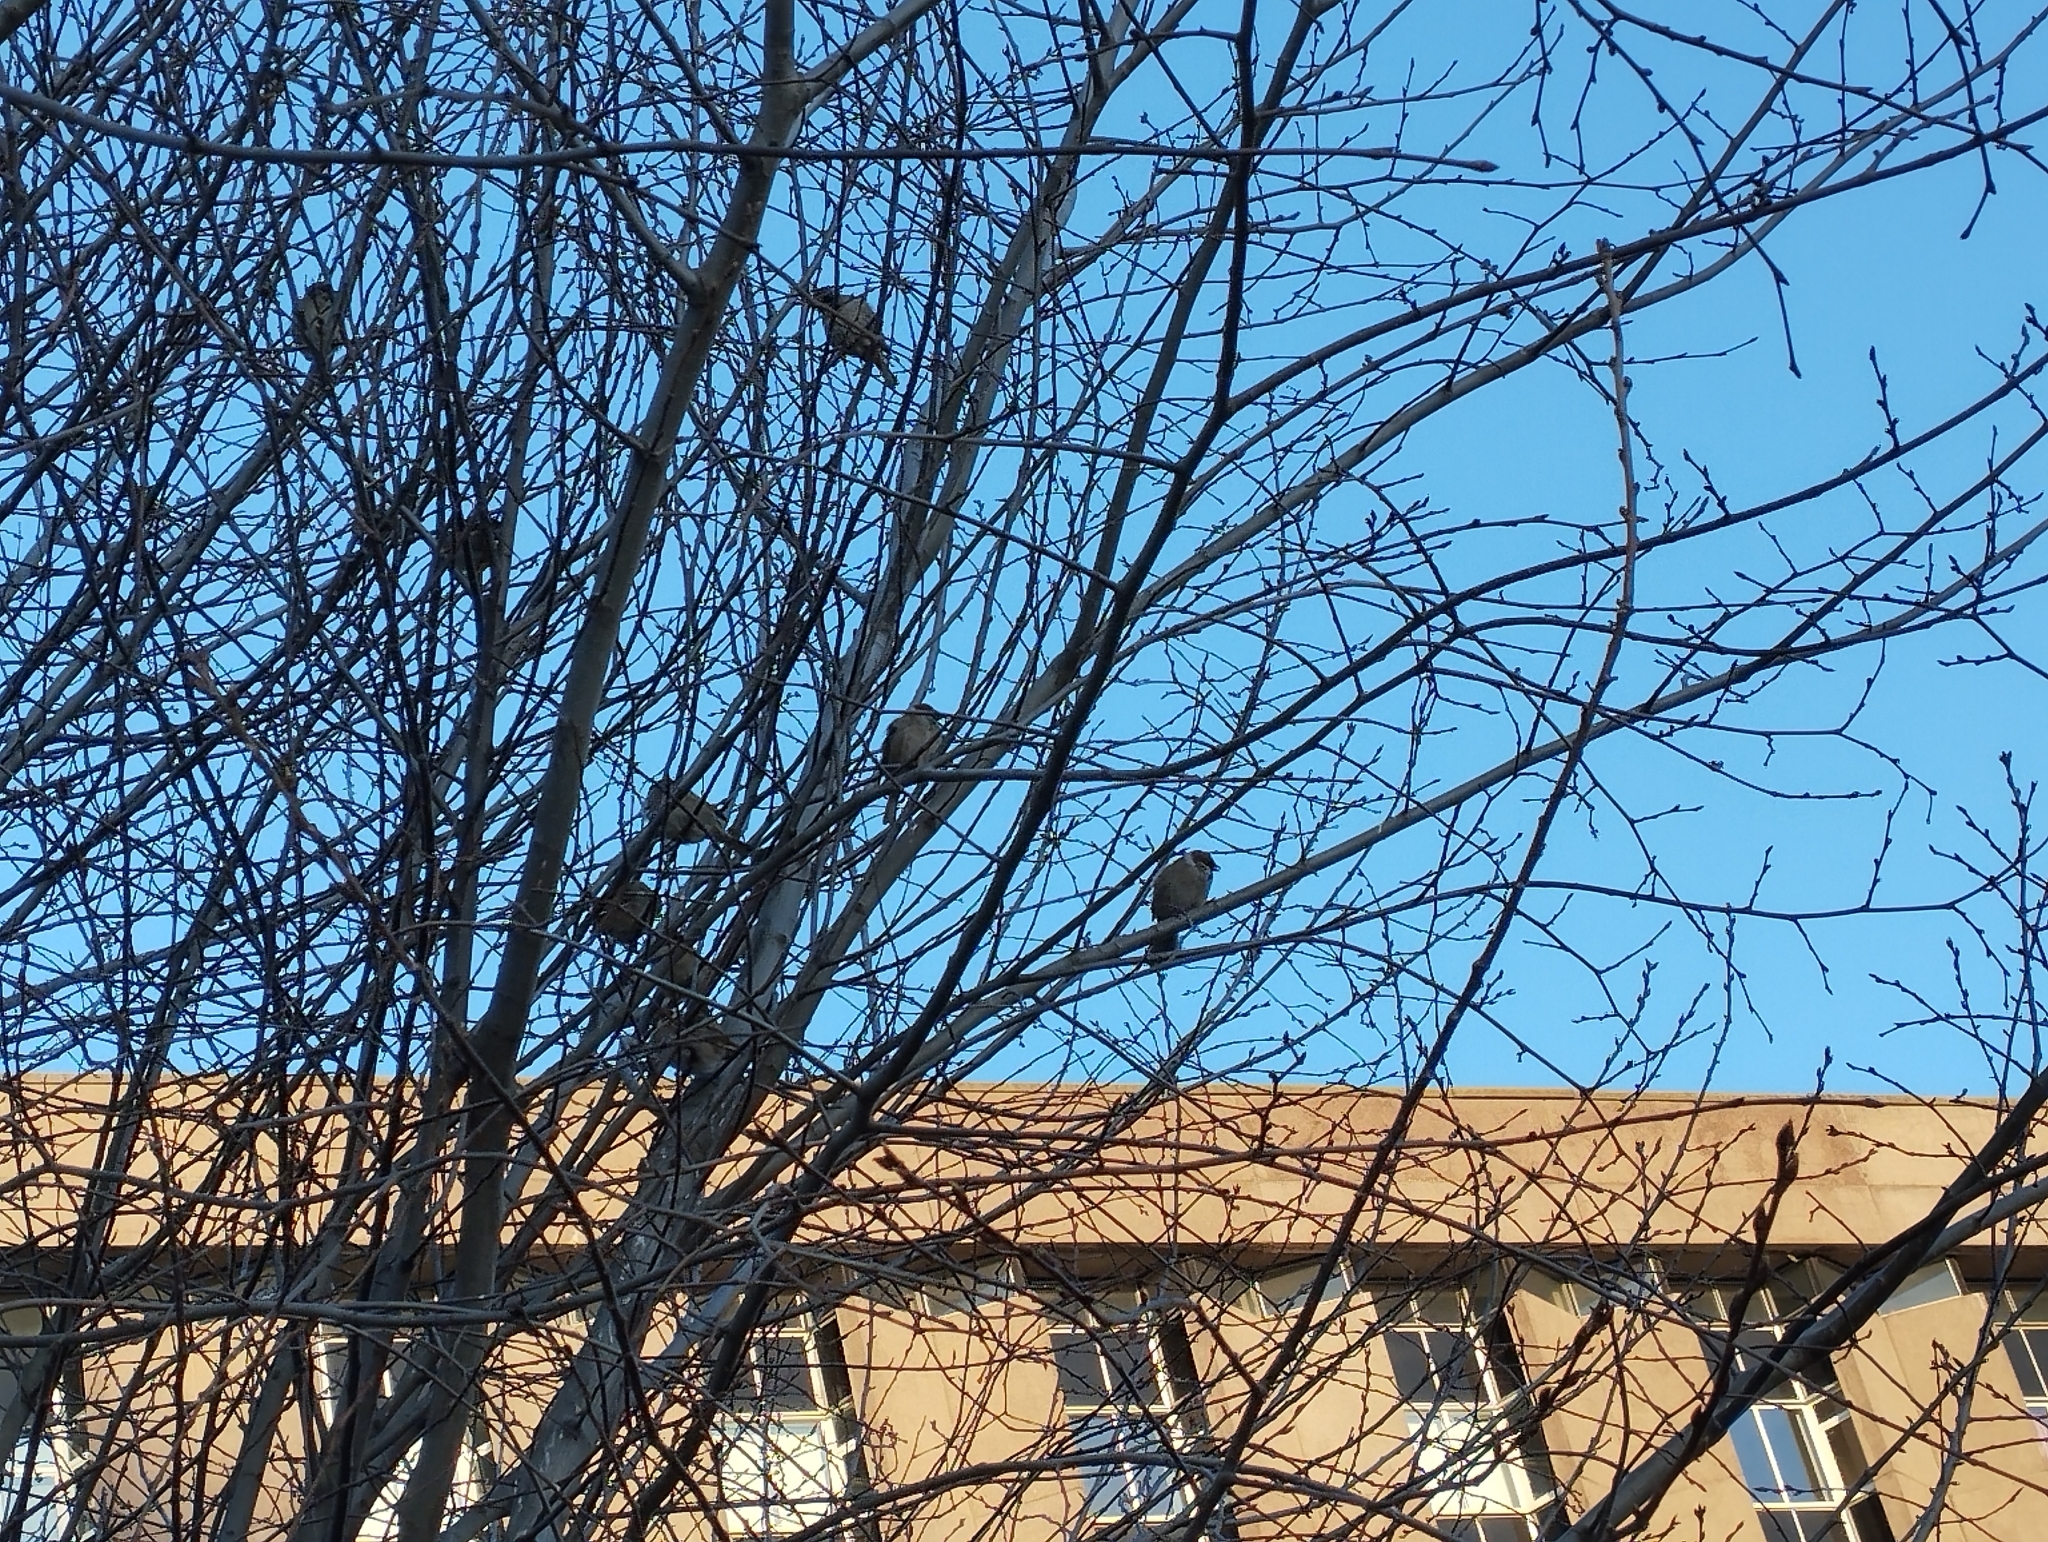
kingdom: Animalia
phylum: Chordata
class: Aves
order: Passeriformes
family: Passeridae
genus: Passer
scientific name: Passer montanus
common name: Eurasian tree sparrow
